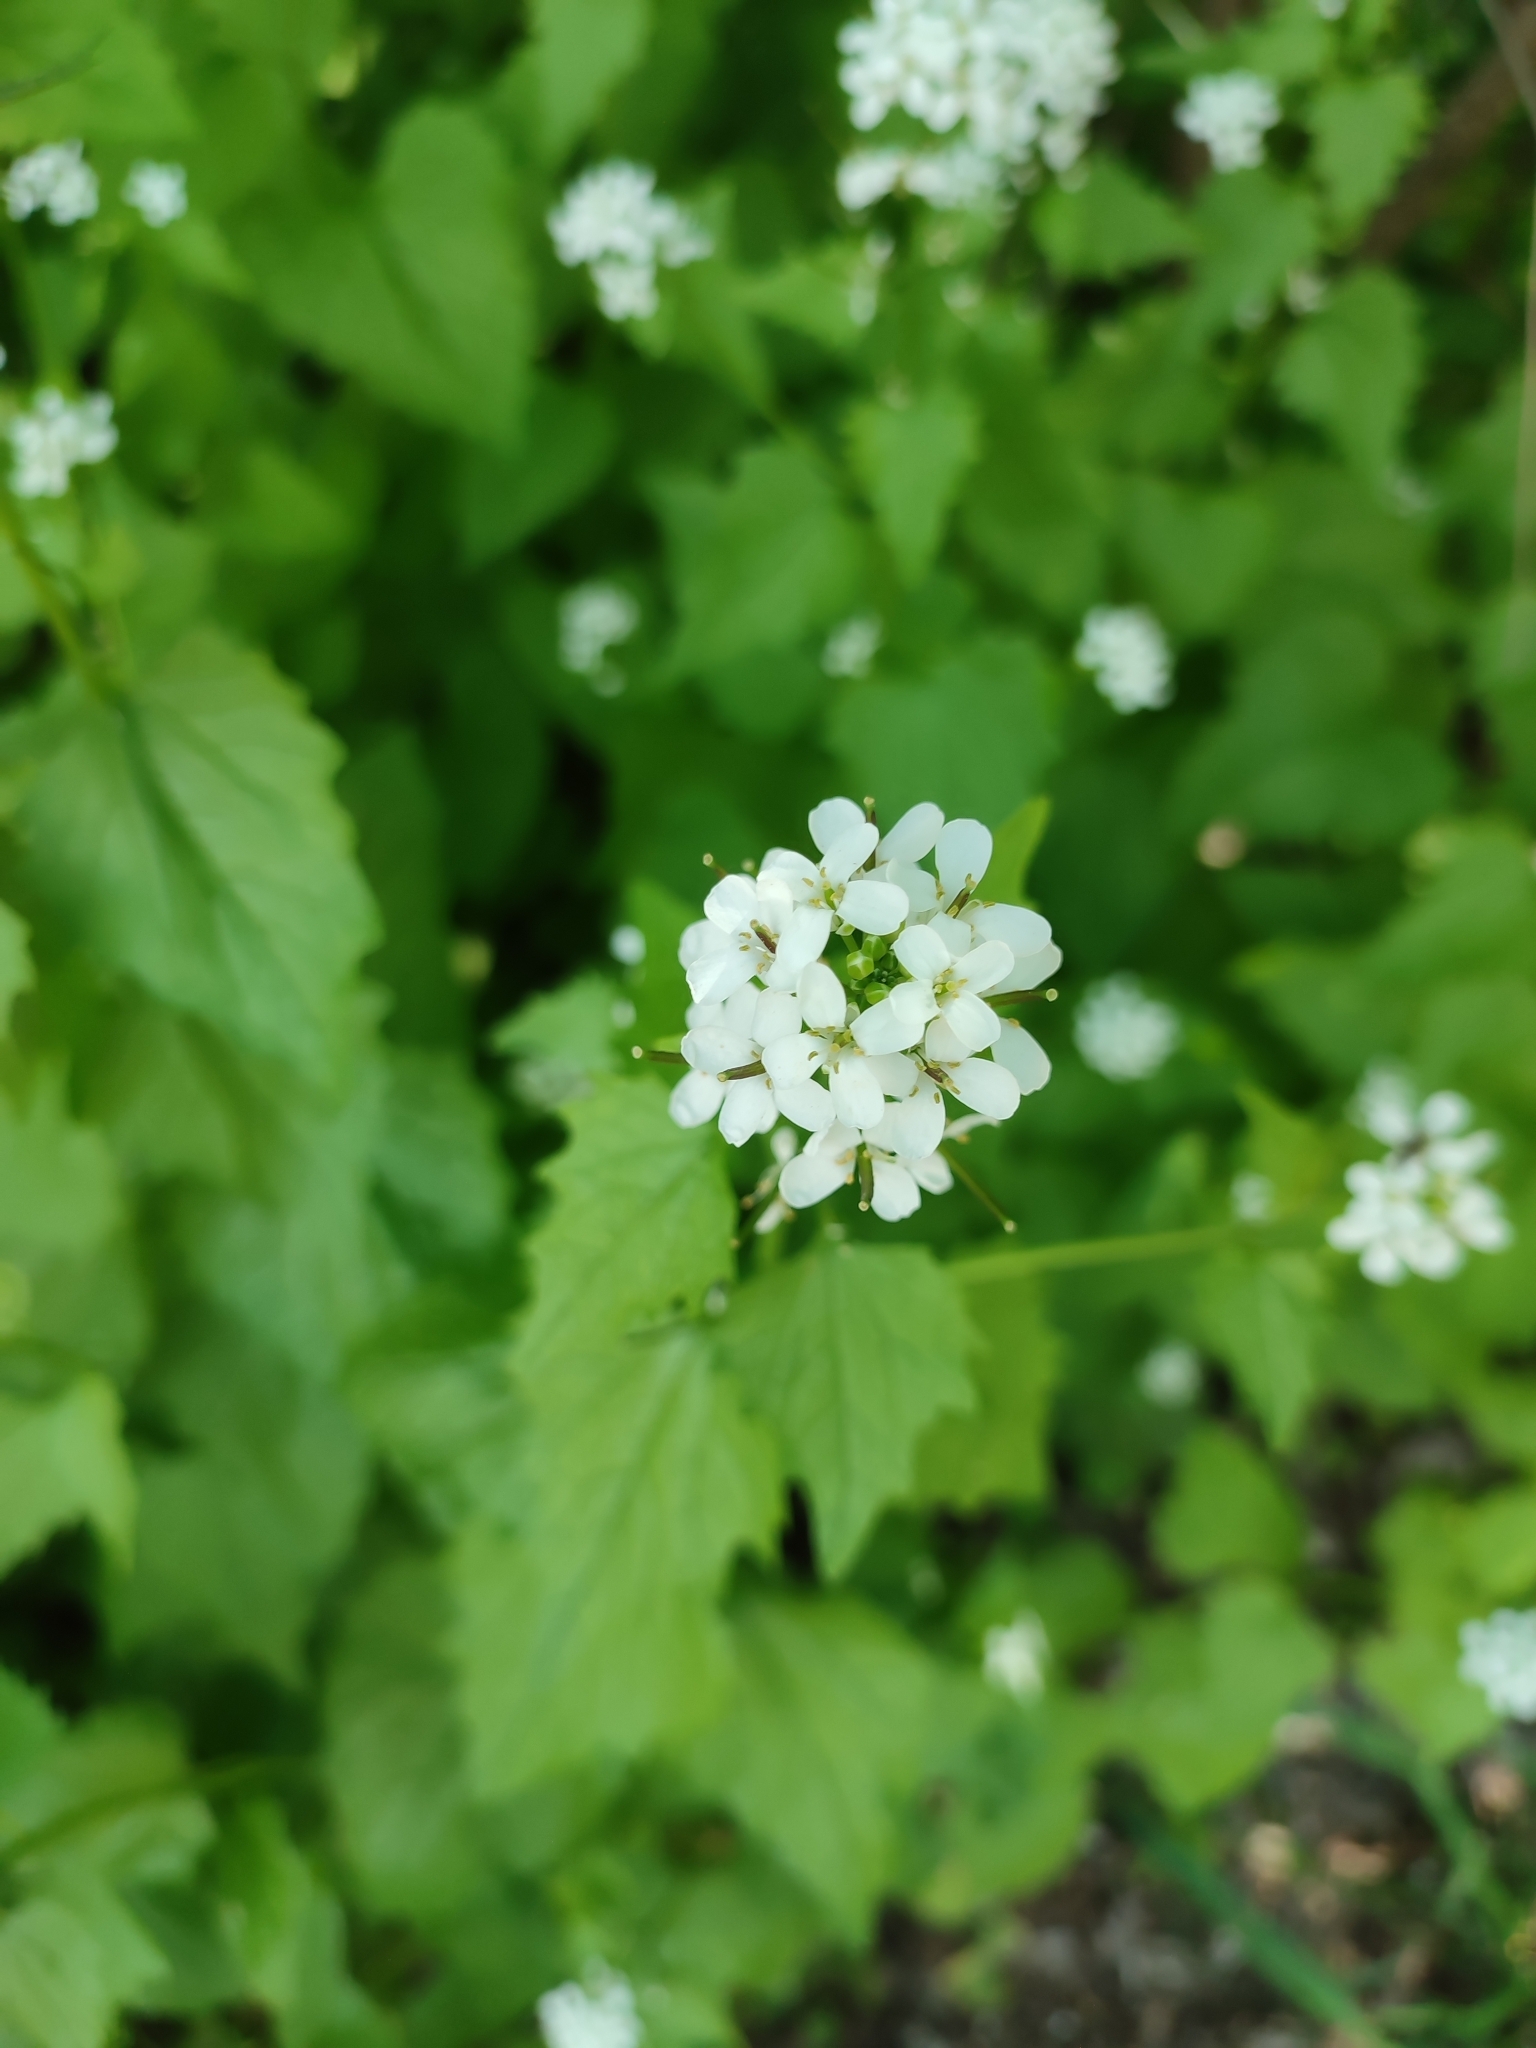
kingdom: Plantae
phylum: Tracheophyta
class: Magnoliopsida
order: Brassicales
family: Brassicaceae
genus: Alliaria
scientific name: Alliaria petiolata
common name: Garlic mustard
